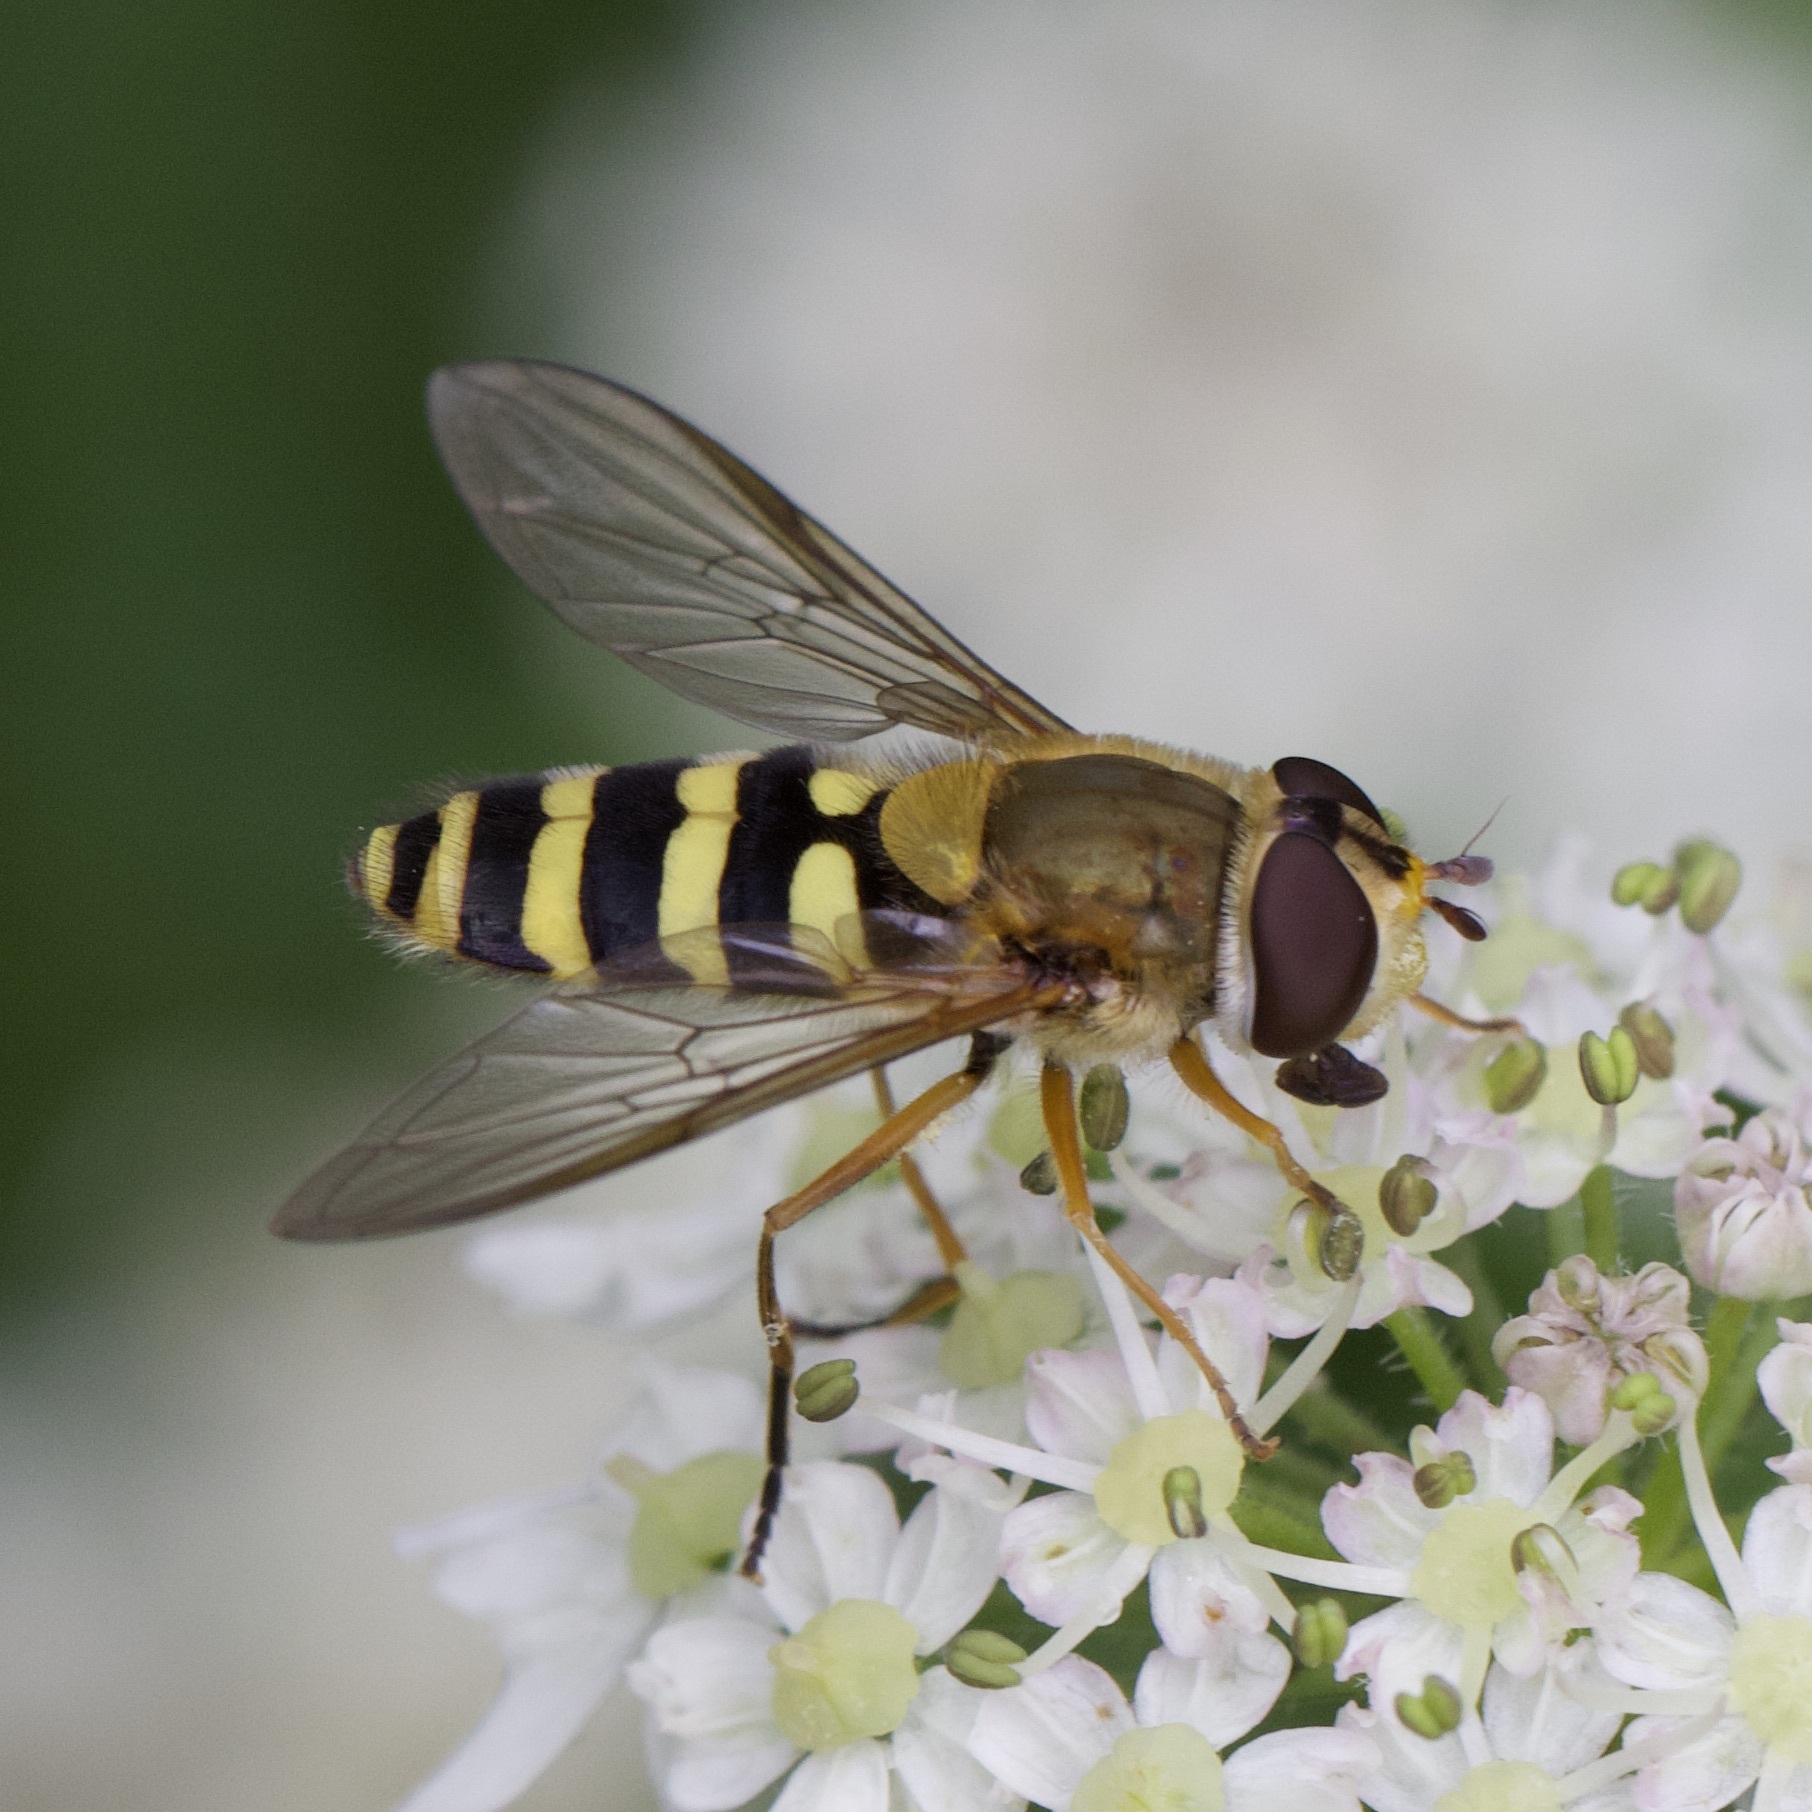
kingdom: Animalia
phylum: Arthropoda
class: Insecta
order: Diptera
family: Syrphidae
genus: Syrphus
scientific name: Syrphus ribesii
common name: Common flower fly
